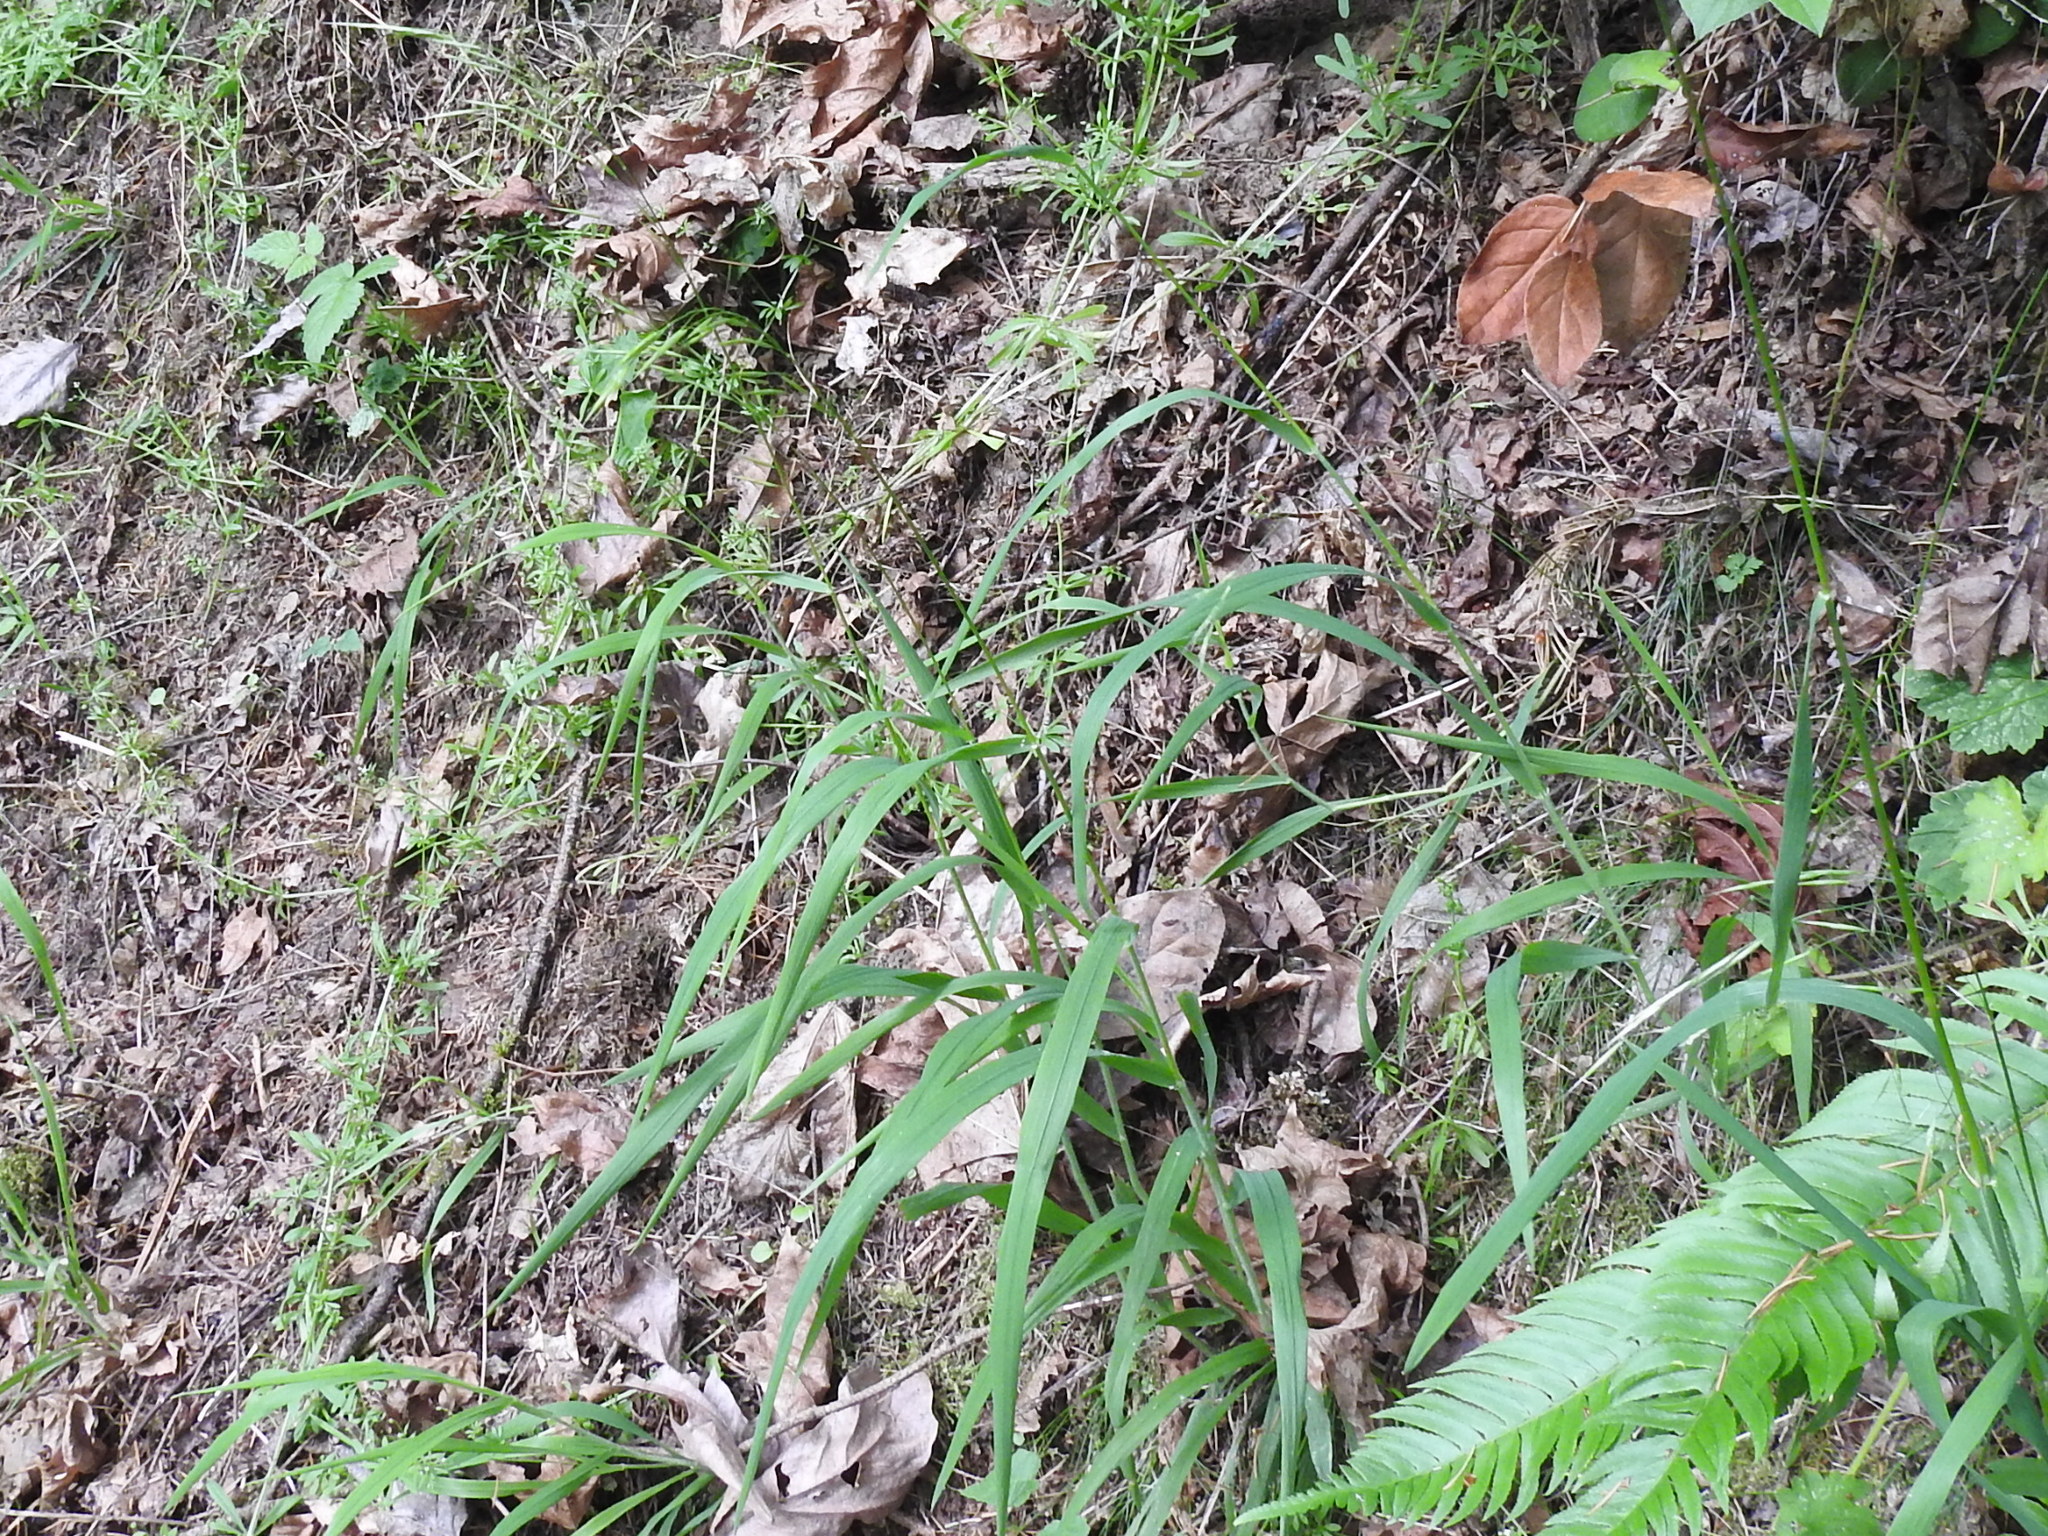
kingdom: Plantae
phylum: Tracheophyta
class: Liliopsida
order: Poales
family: Poaceae
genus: Bromus
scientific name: Bromus vulgaris
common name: Columbia brome
